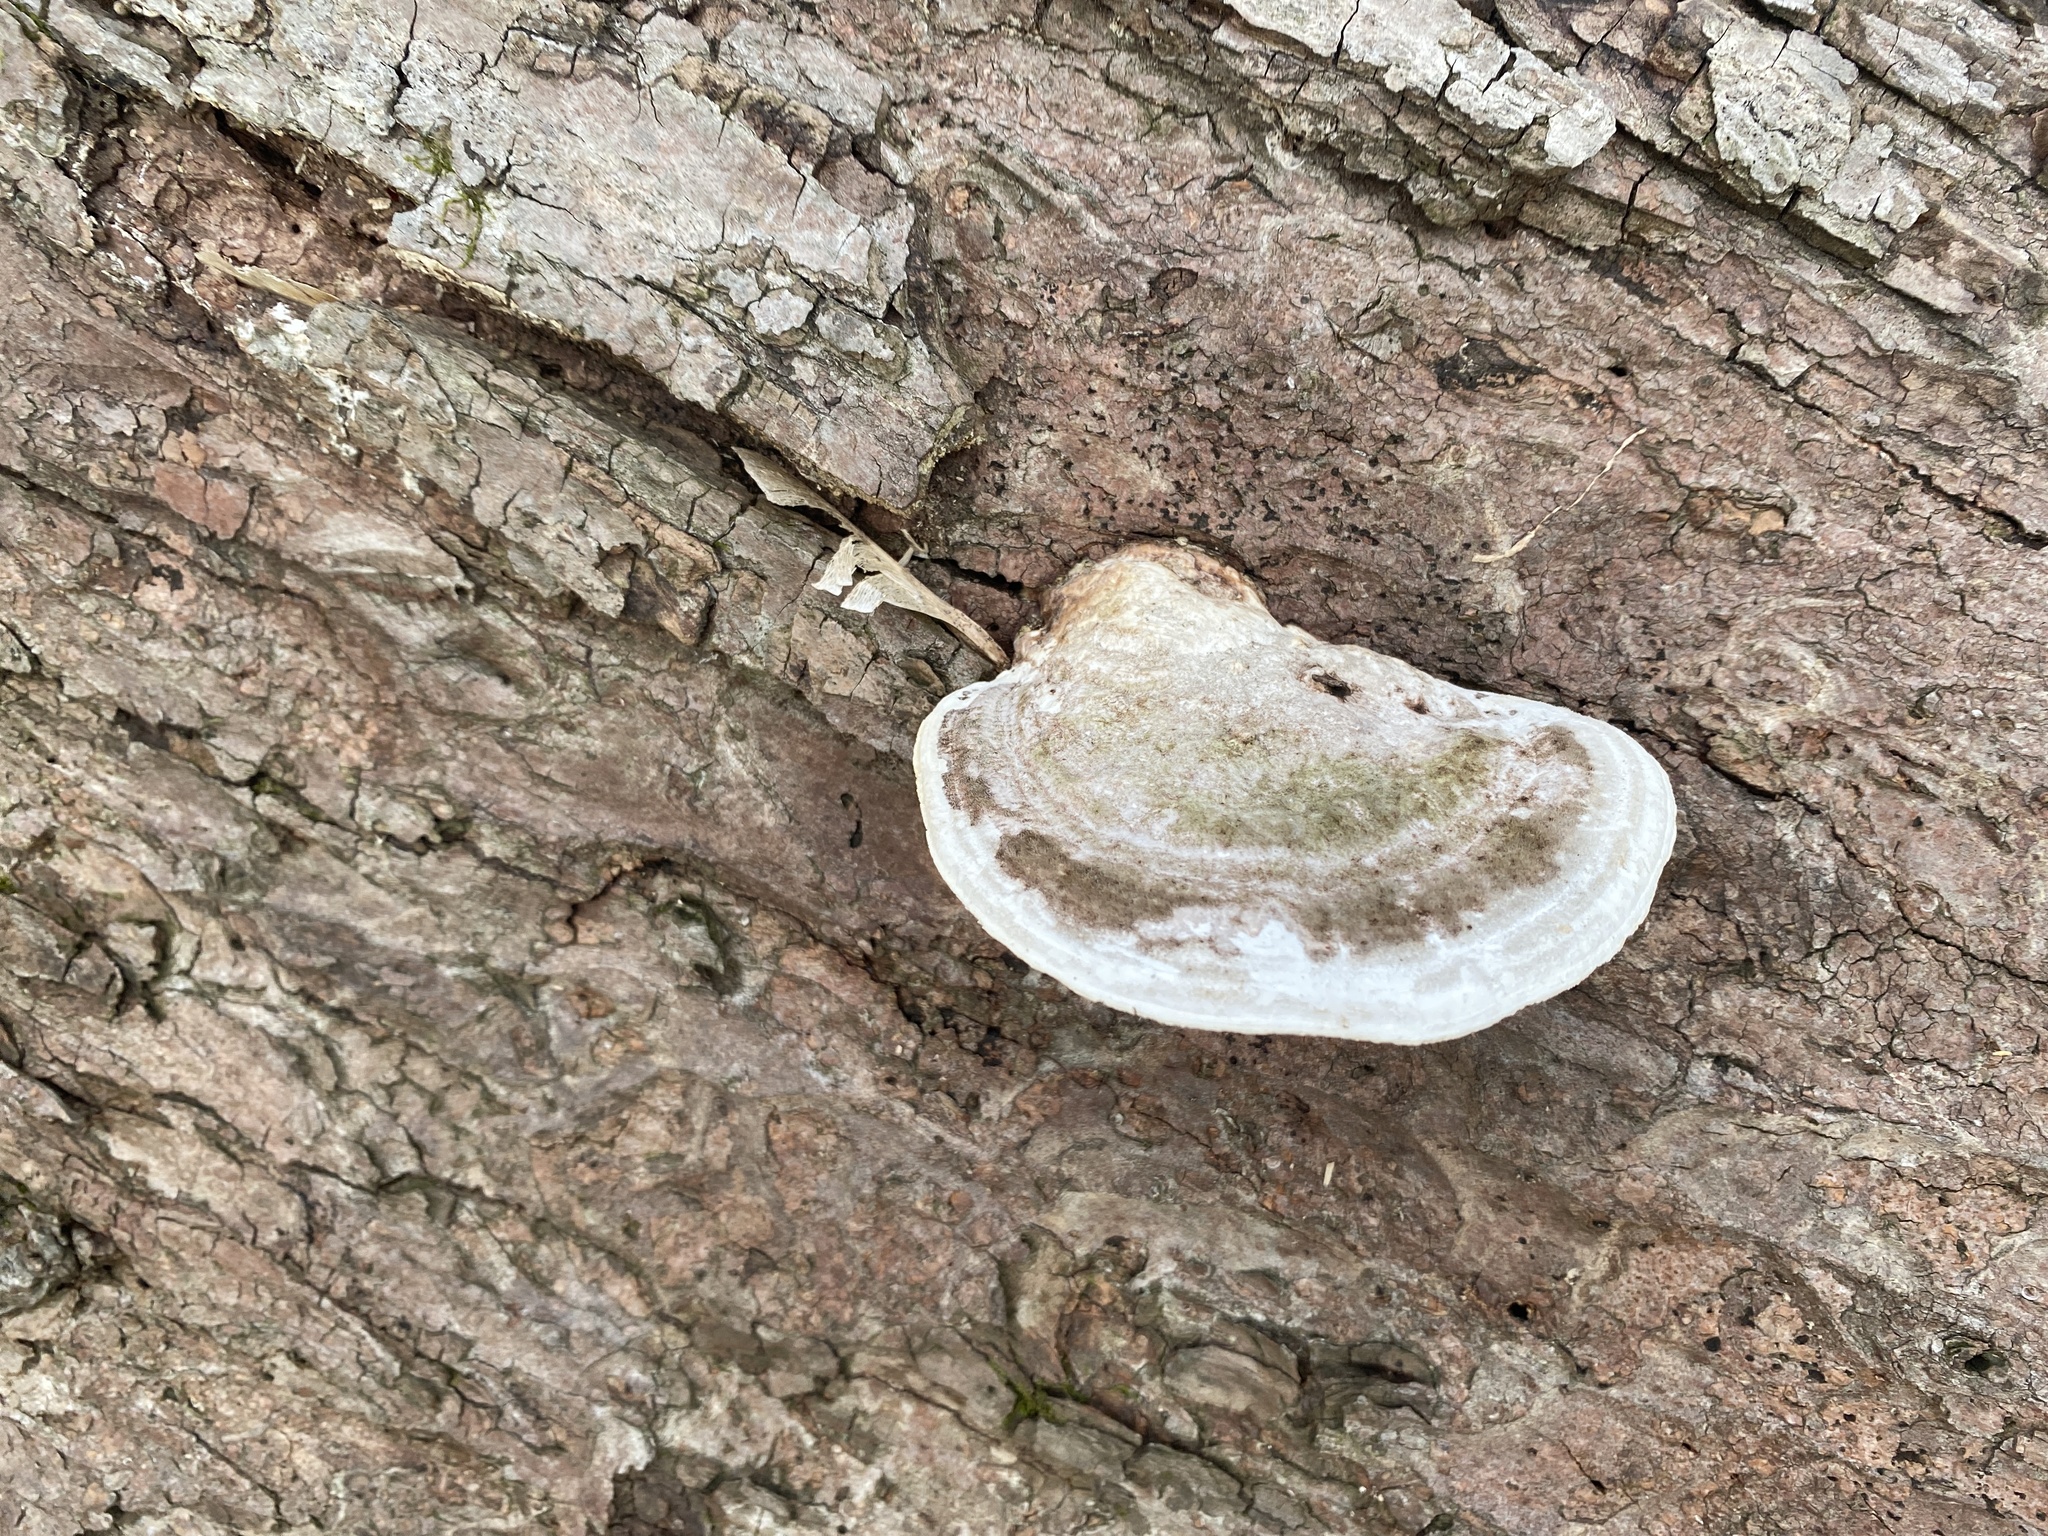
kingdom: Fungi
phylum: Basidiomycota
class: Agaricomycetes
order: Polyporales
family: Polyporaceae
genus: Trametes
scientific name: Trametes gibbosa
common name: Lumpy bracket
